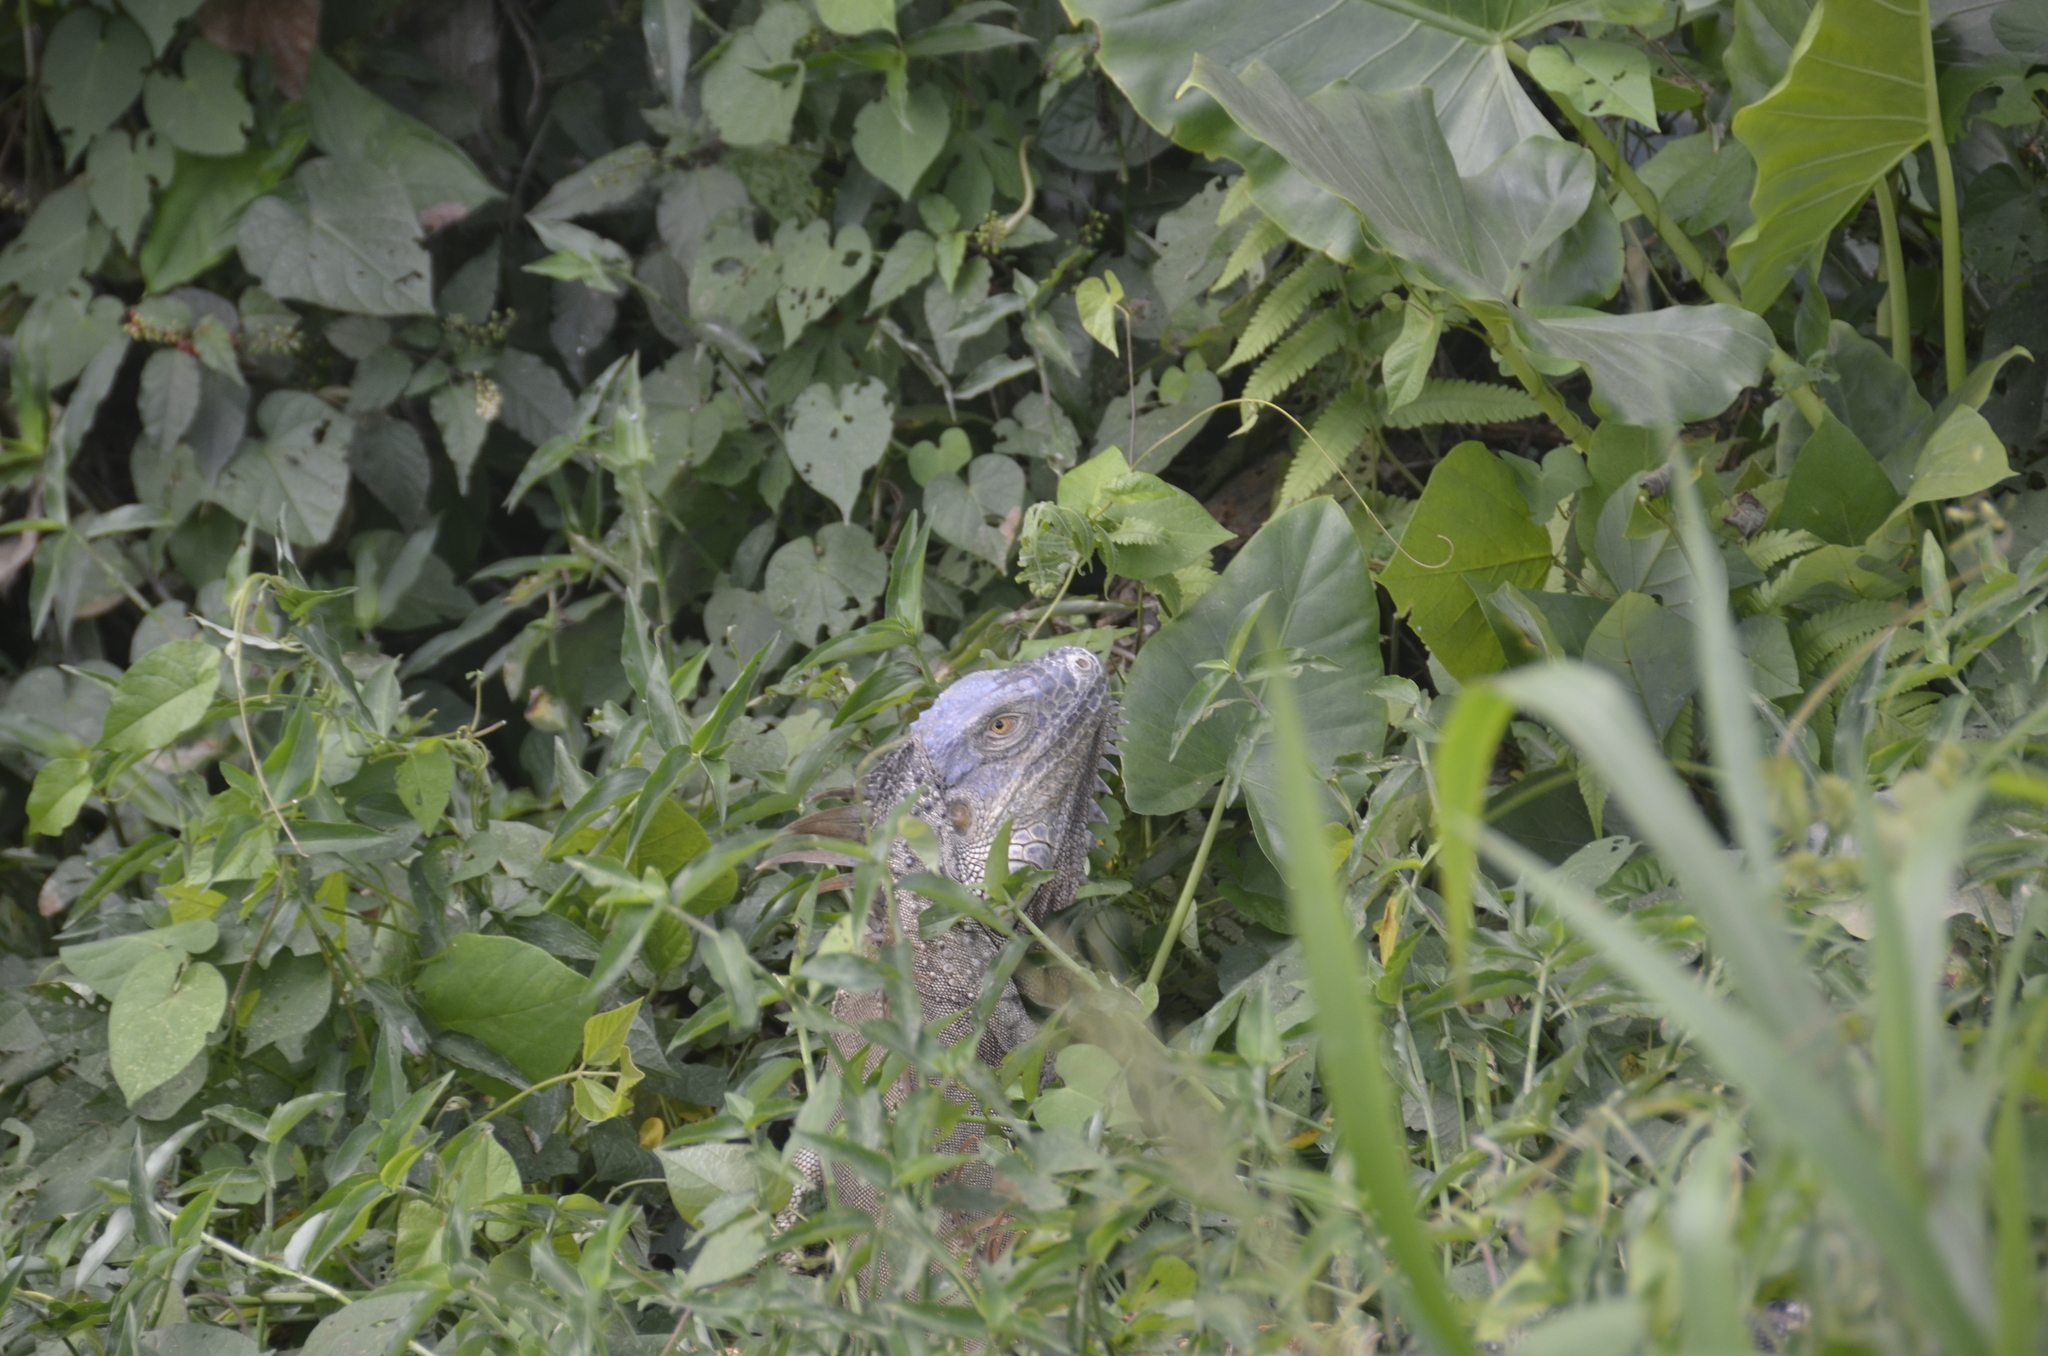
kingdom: Animalia
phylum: Chordata
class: Squamata
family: Iguanidae
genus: Iguana
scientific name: Iguana iguana
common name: Green iguana
